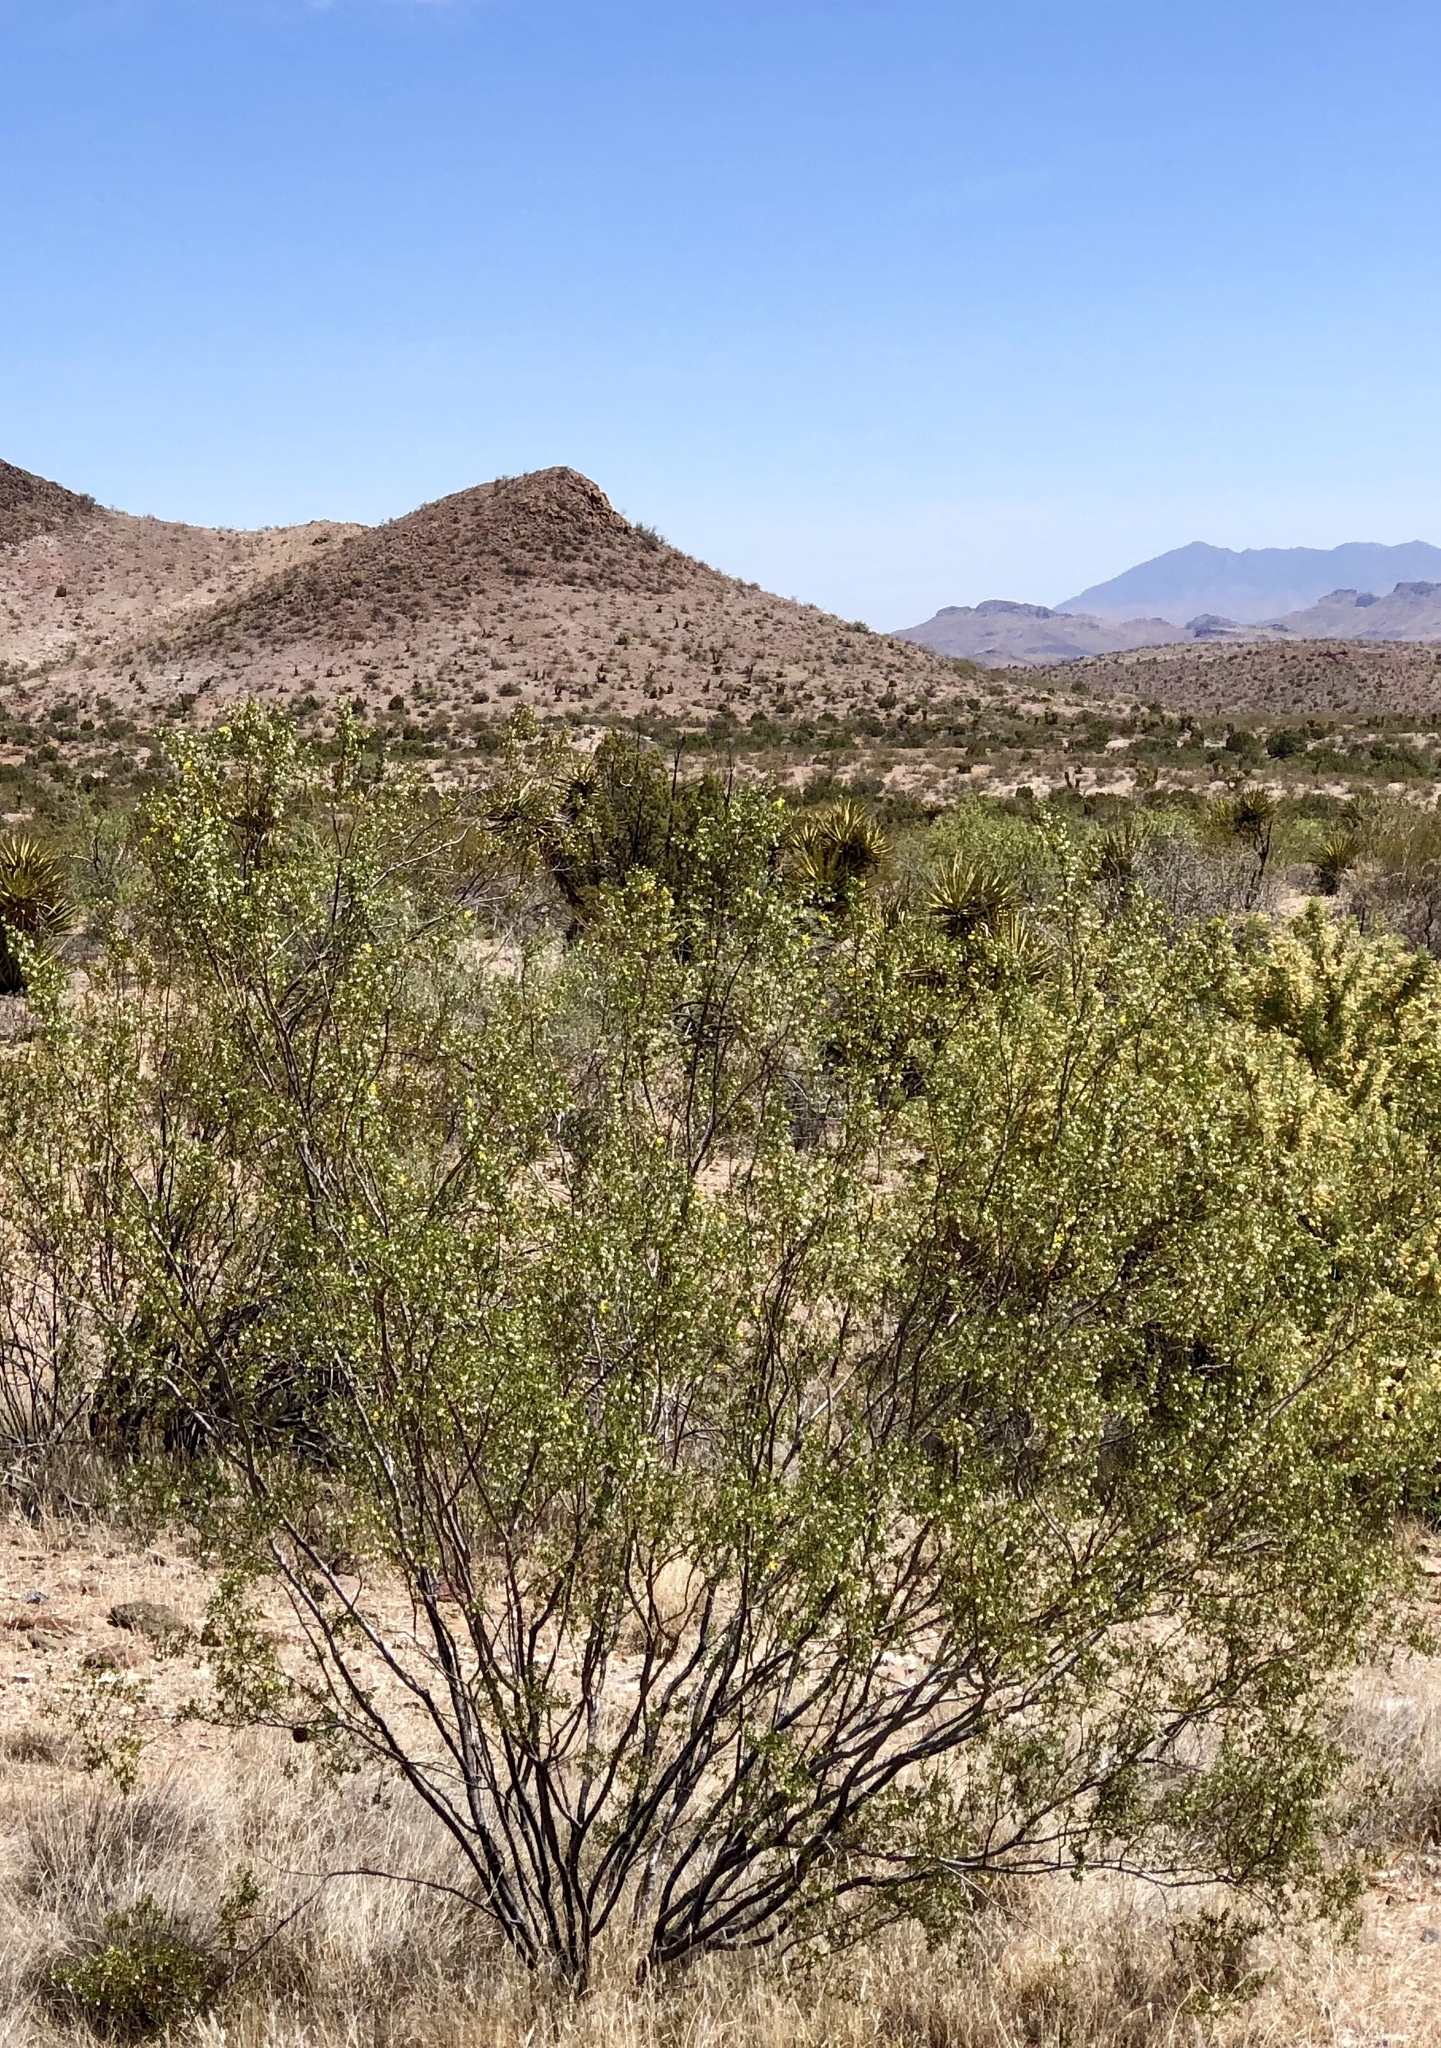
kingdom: Plantae
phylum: Tracheophyta
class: Magnoliopsida
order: Zygophyllales
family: Zygophyllaceae
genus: Larrea
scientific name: Larrea tridentata
